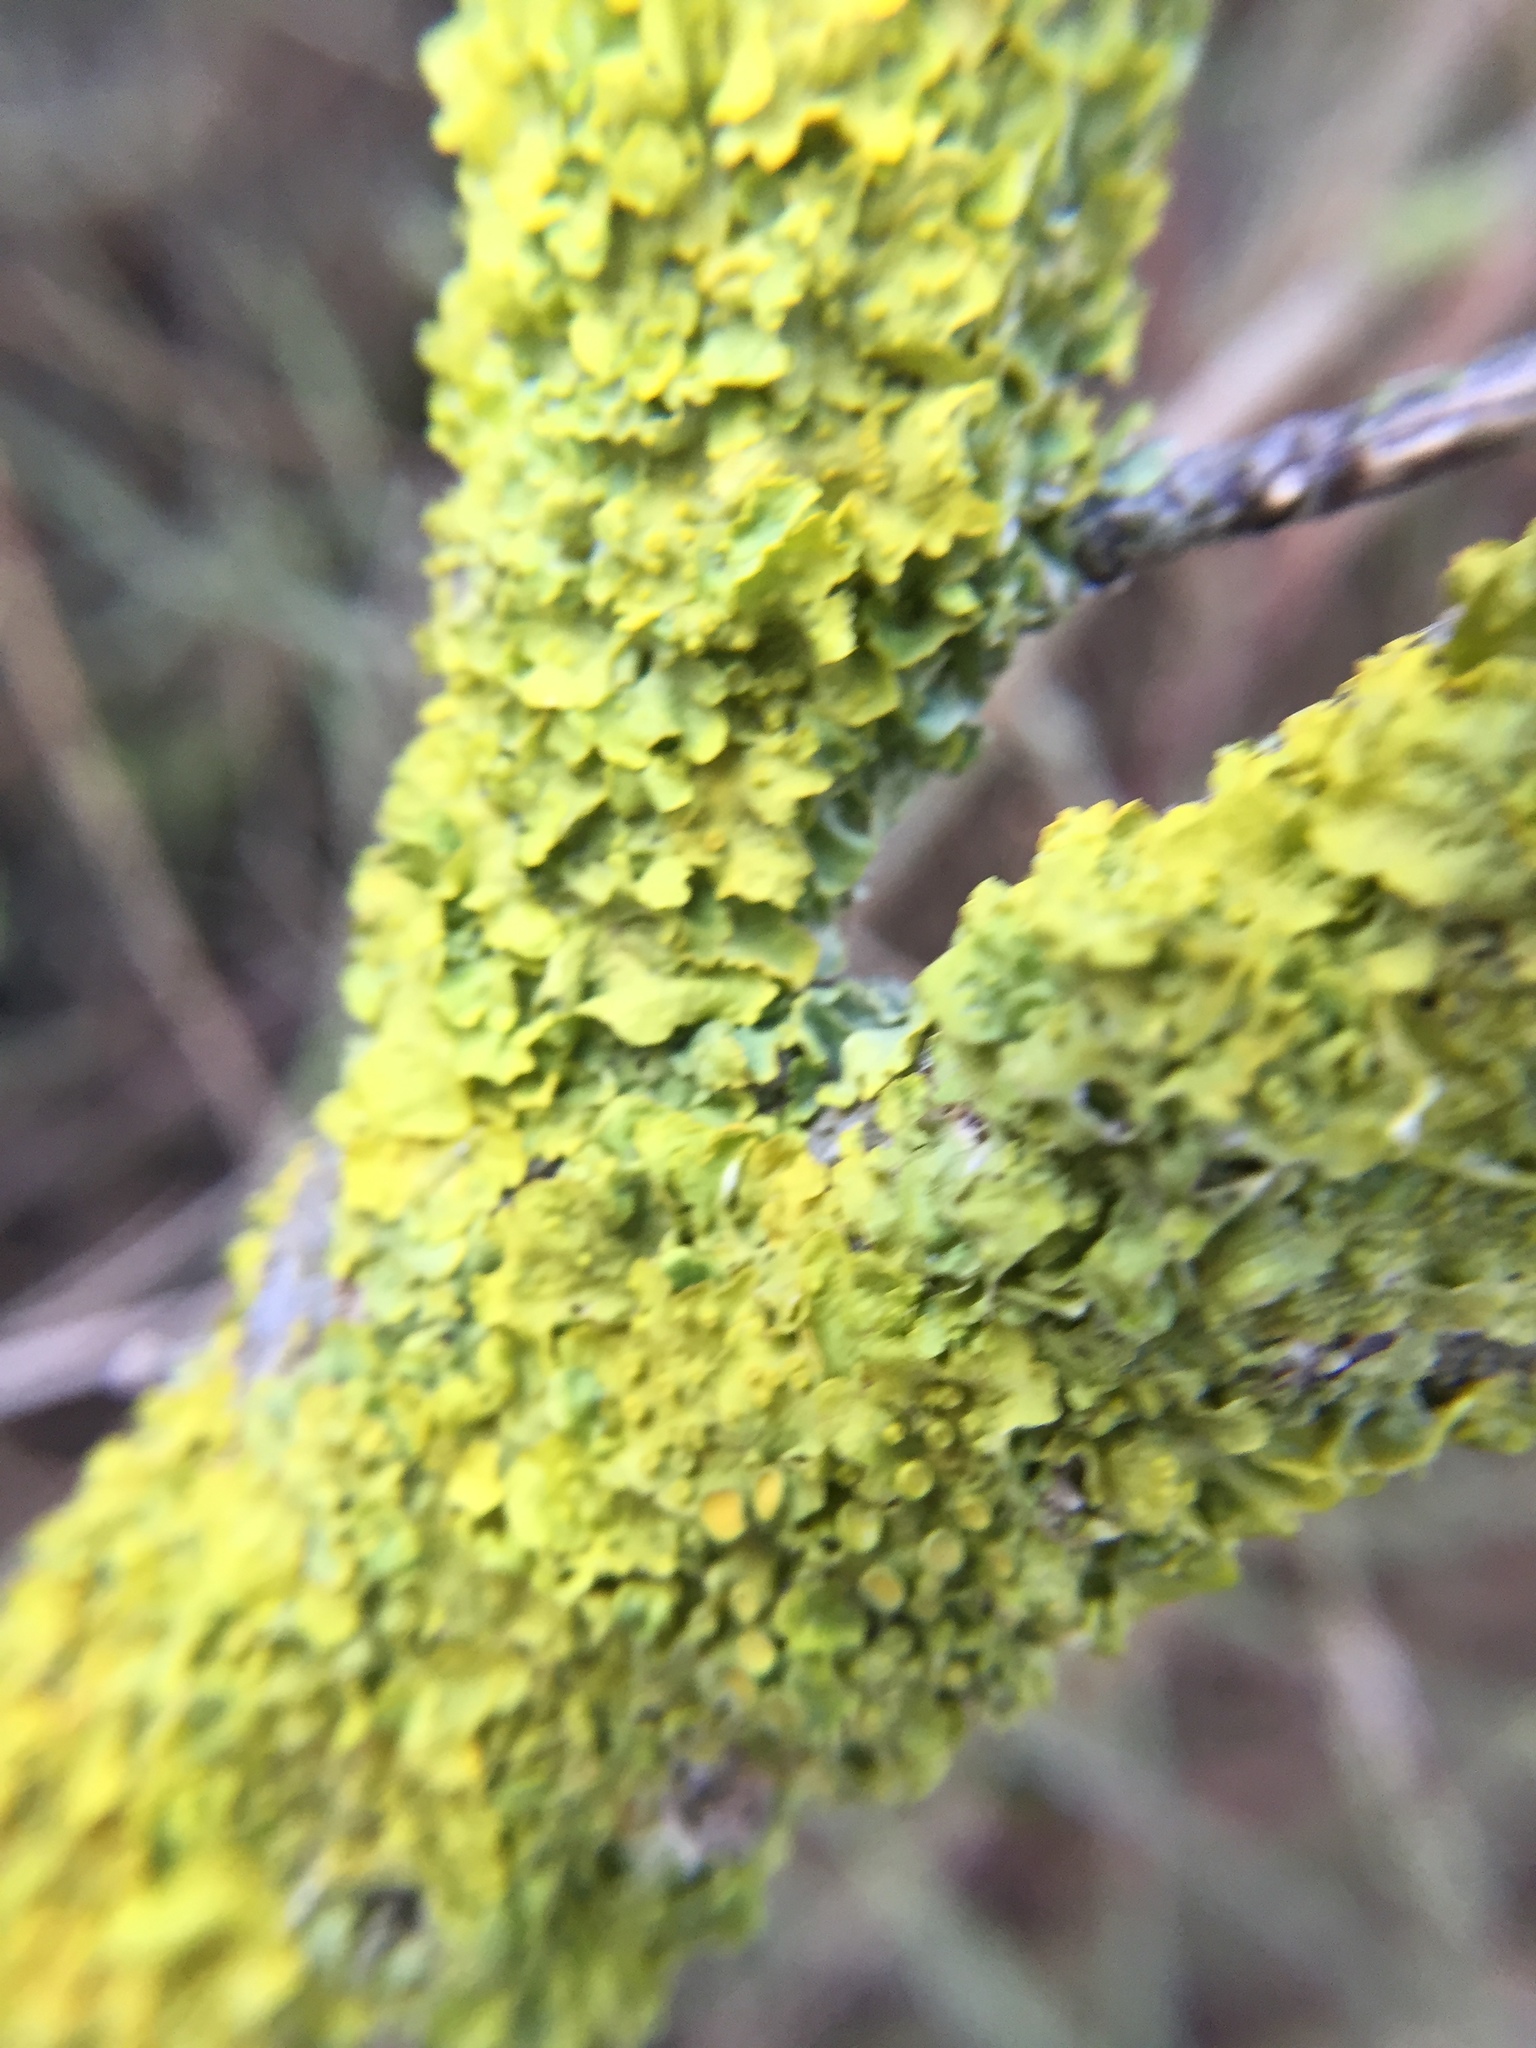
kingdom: Fungi
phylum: Ascomycota
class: Lecanoromycetes
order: Teloschistales
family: Teloschistaceae
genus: Xanthoria
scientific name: Xanthoria parietina
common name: Common orange lichen
